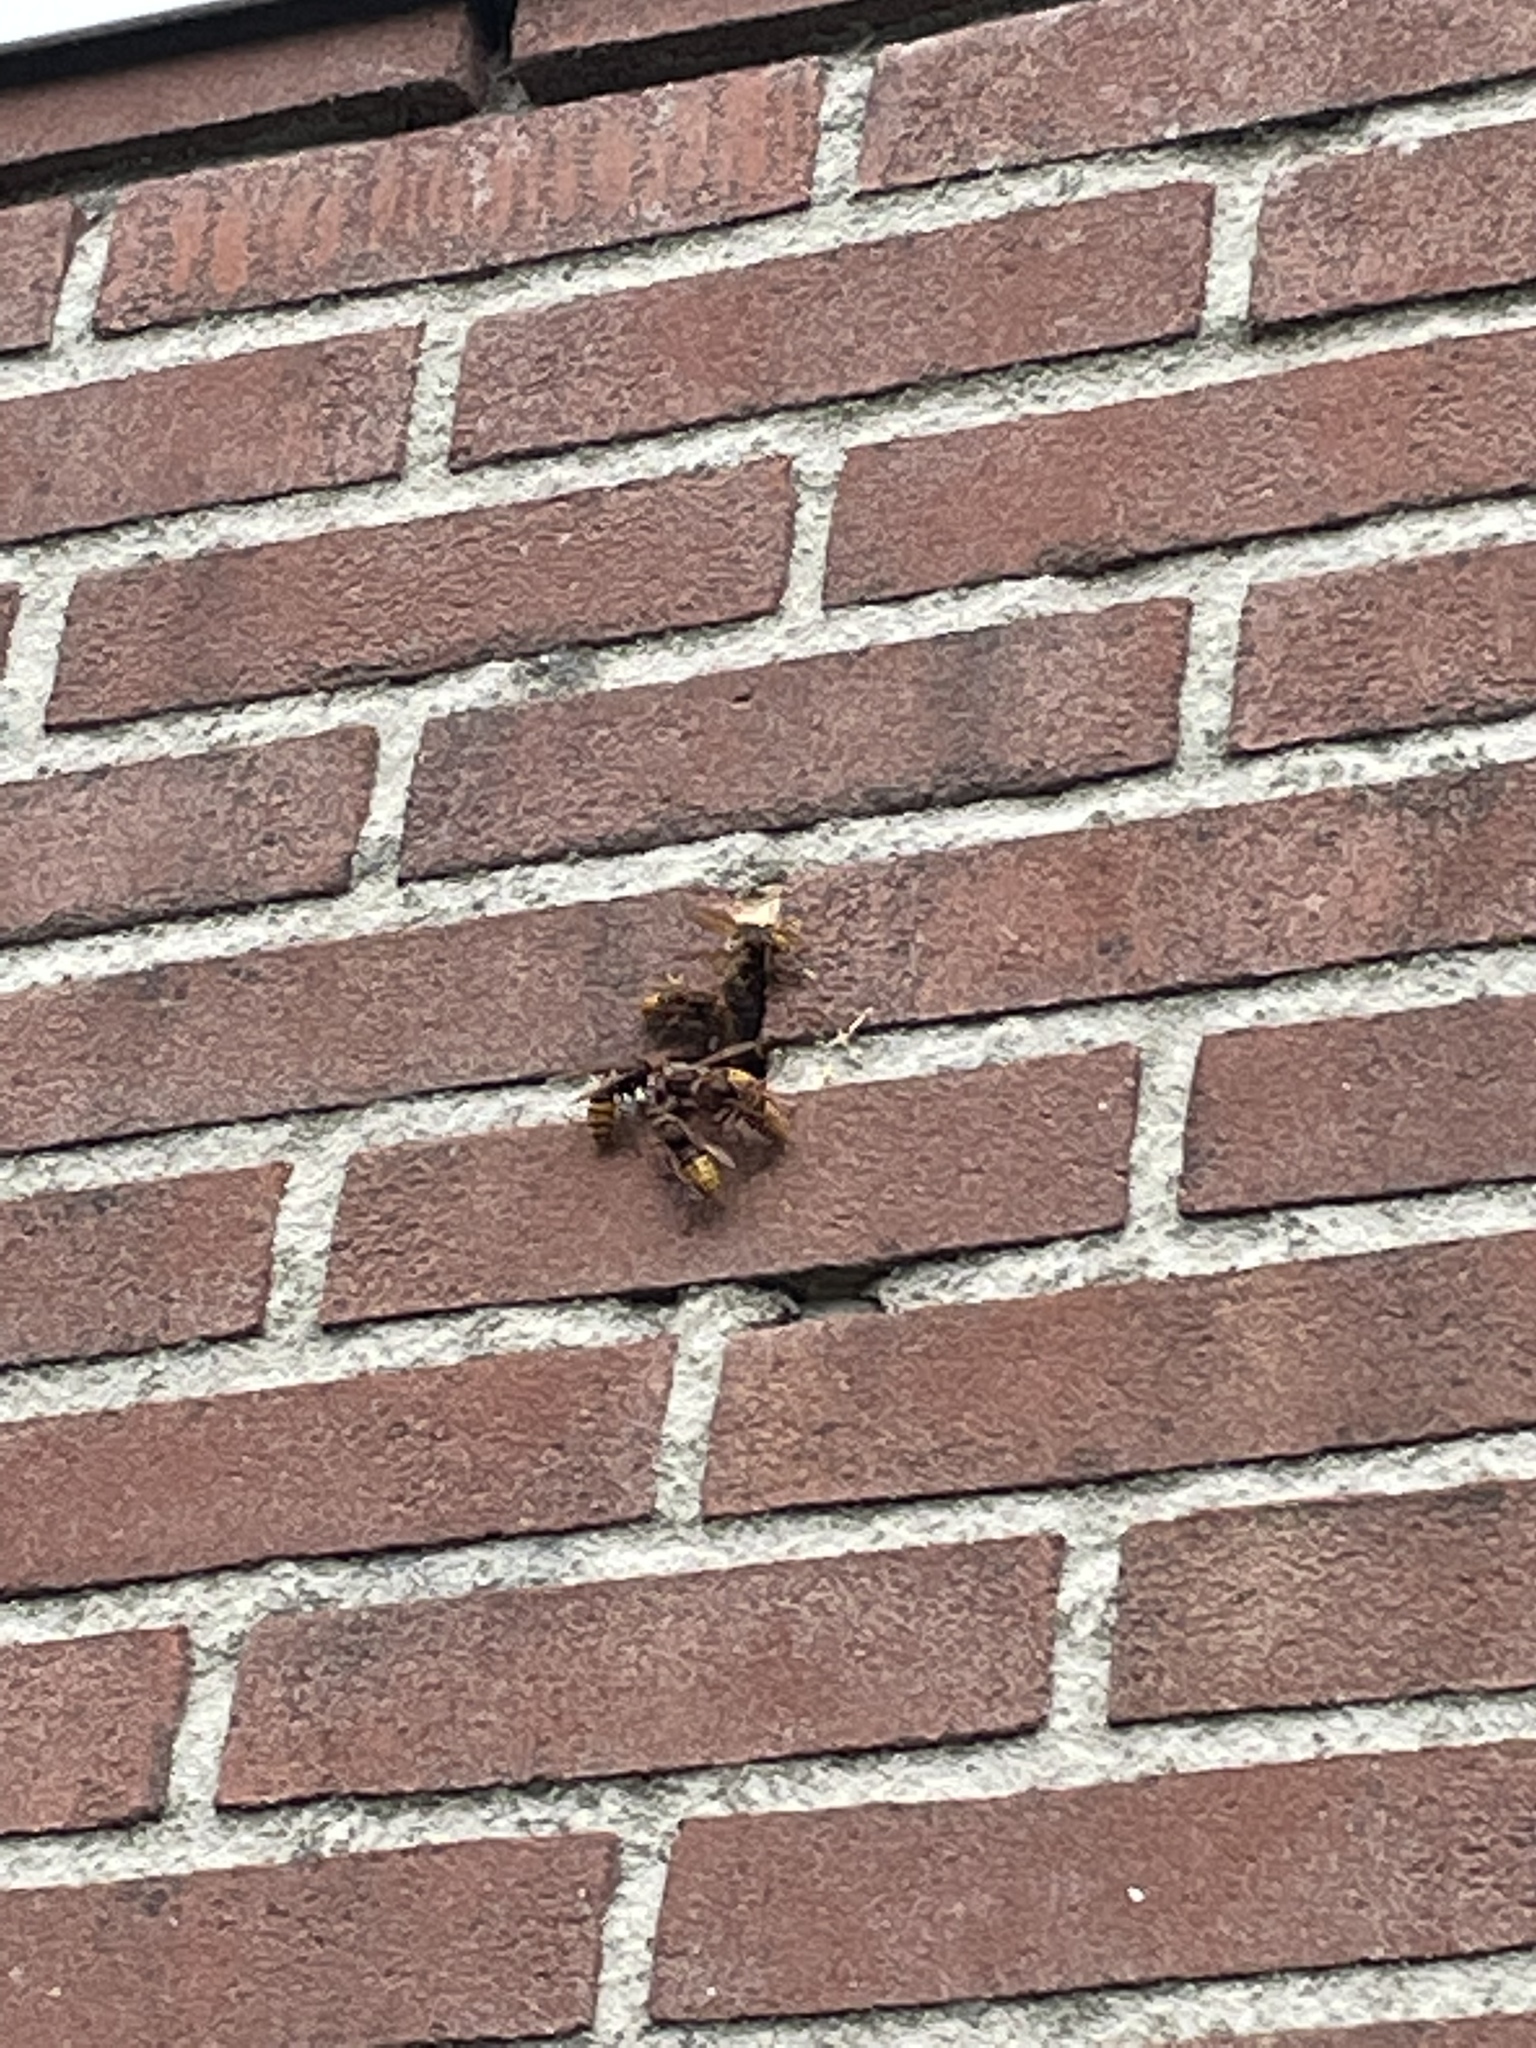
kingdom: Animalia
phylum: Arthropoda
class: Insecta
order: Hymenoptera
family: Vespidae
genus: Vespa
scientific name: Vespa crabro
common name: Hornet
